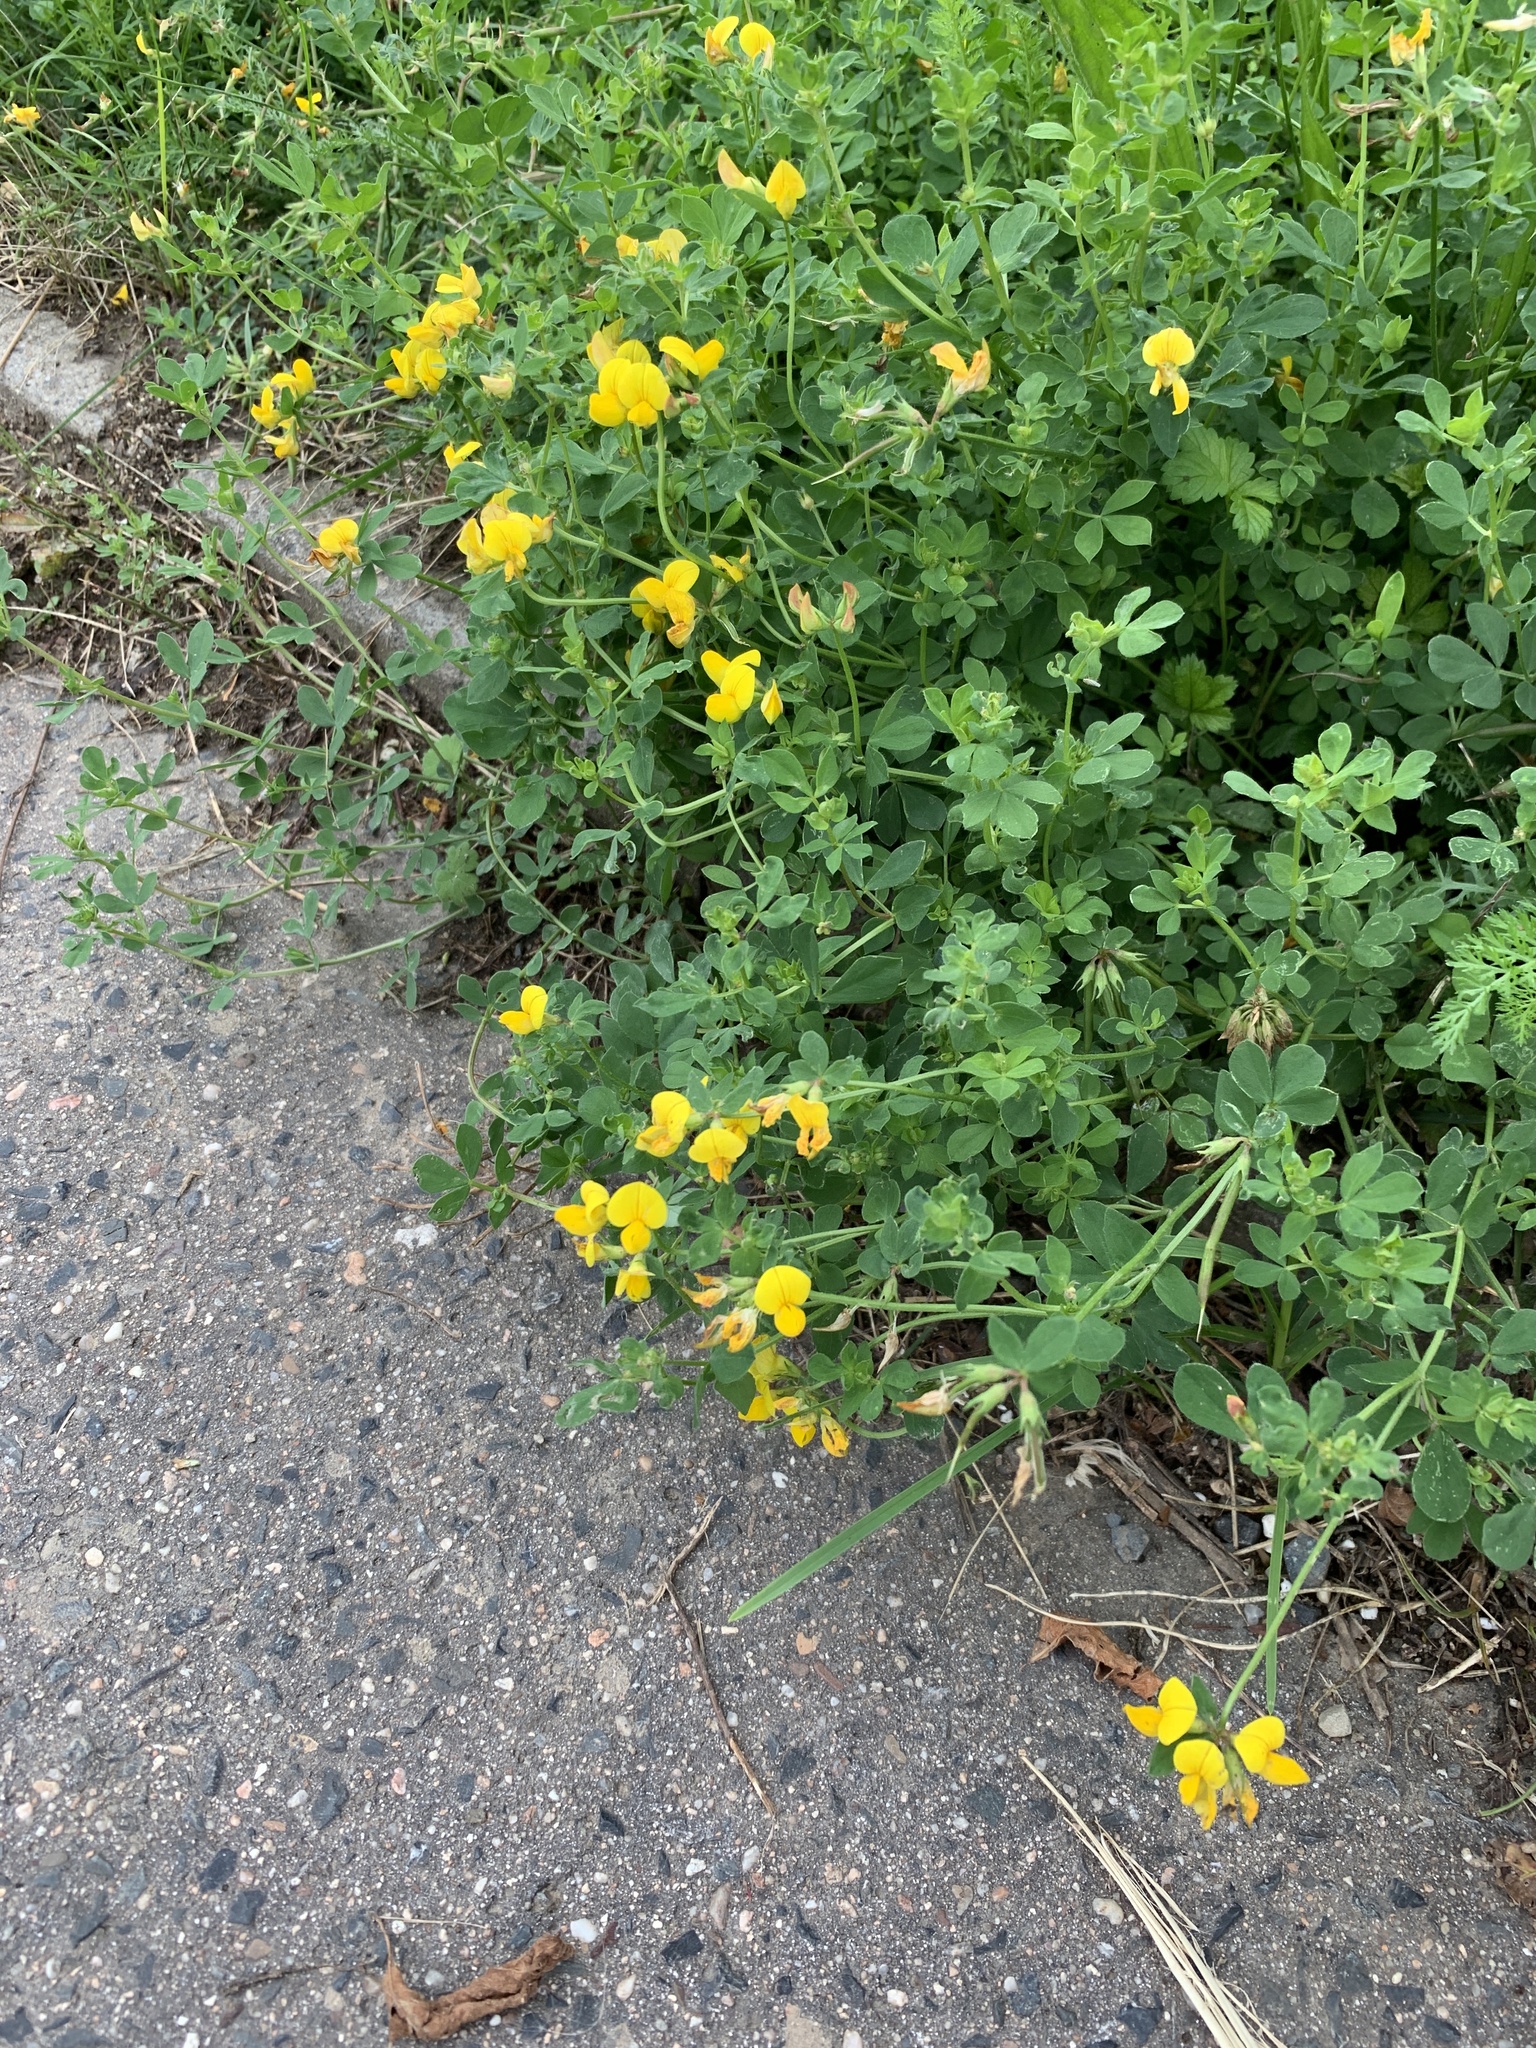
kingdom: Plantae
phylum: Tracheophyta
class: Magnoliopsida
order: Fabales
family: Fabaceae
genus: Lotus
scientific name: Lotus corniculatus
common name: Common bird's-foot-trefoil
